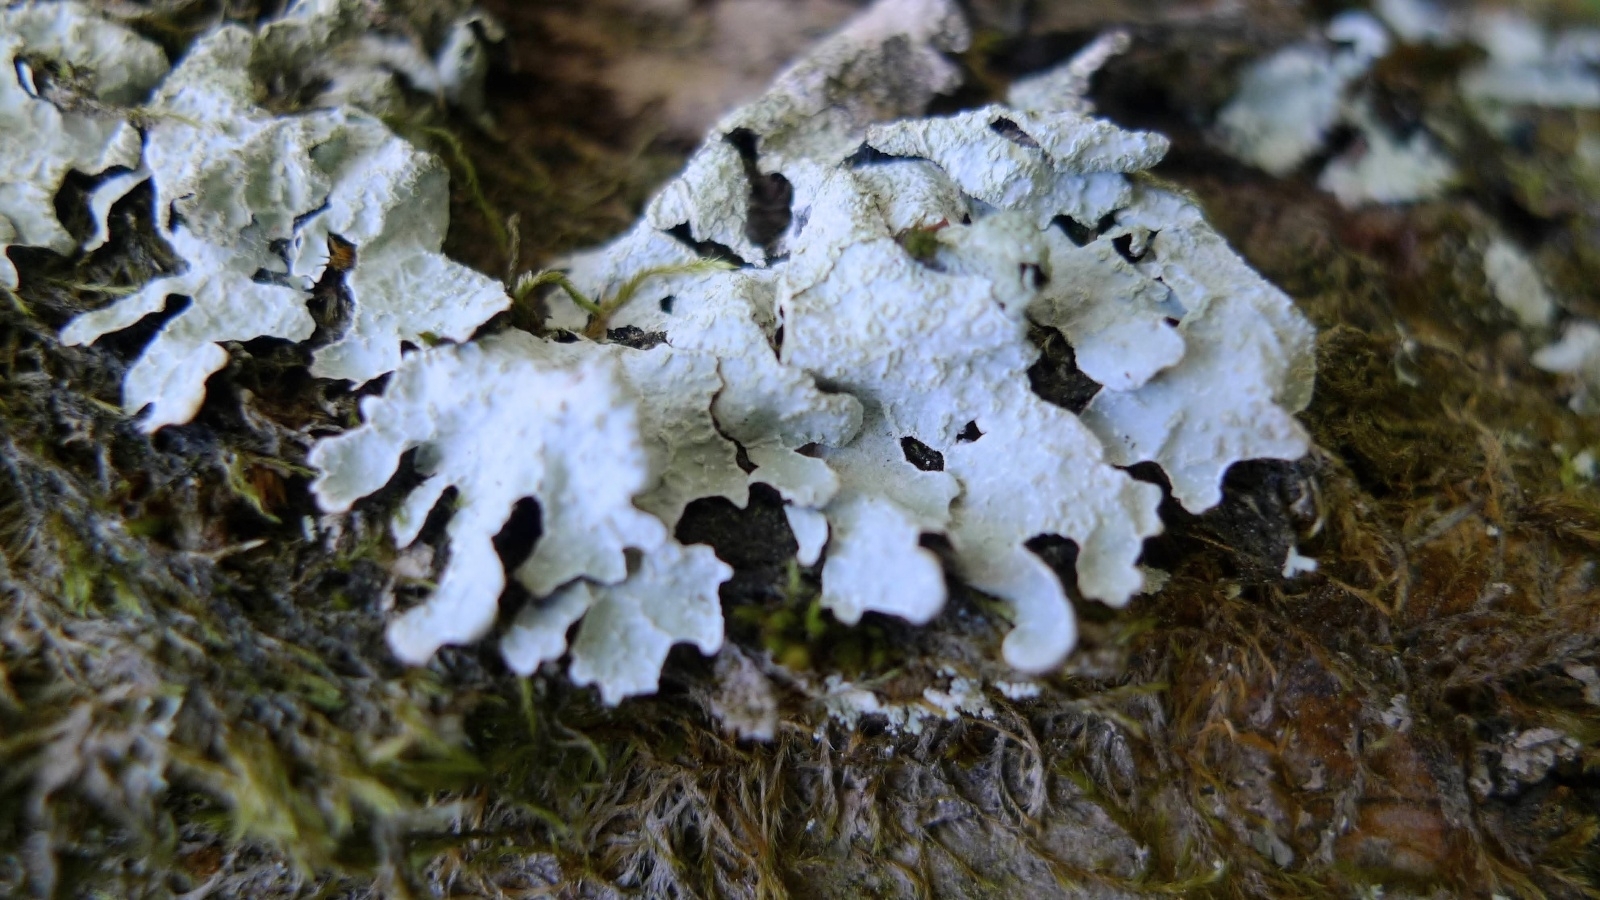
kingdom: Fungi
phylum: Ascomycota
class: Lecanoromycetes
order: Lecanorales
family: Parmeliaceae
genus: Parmelia
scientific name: Parmelia sulcata
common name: Netted shield lichen
